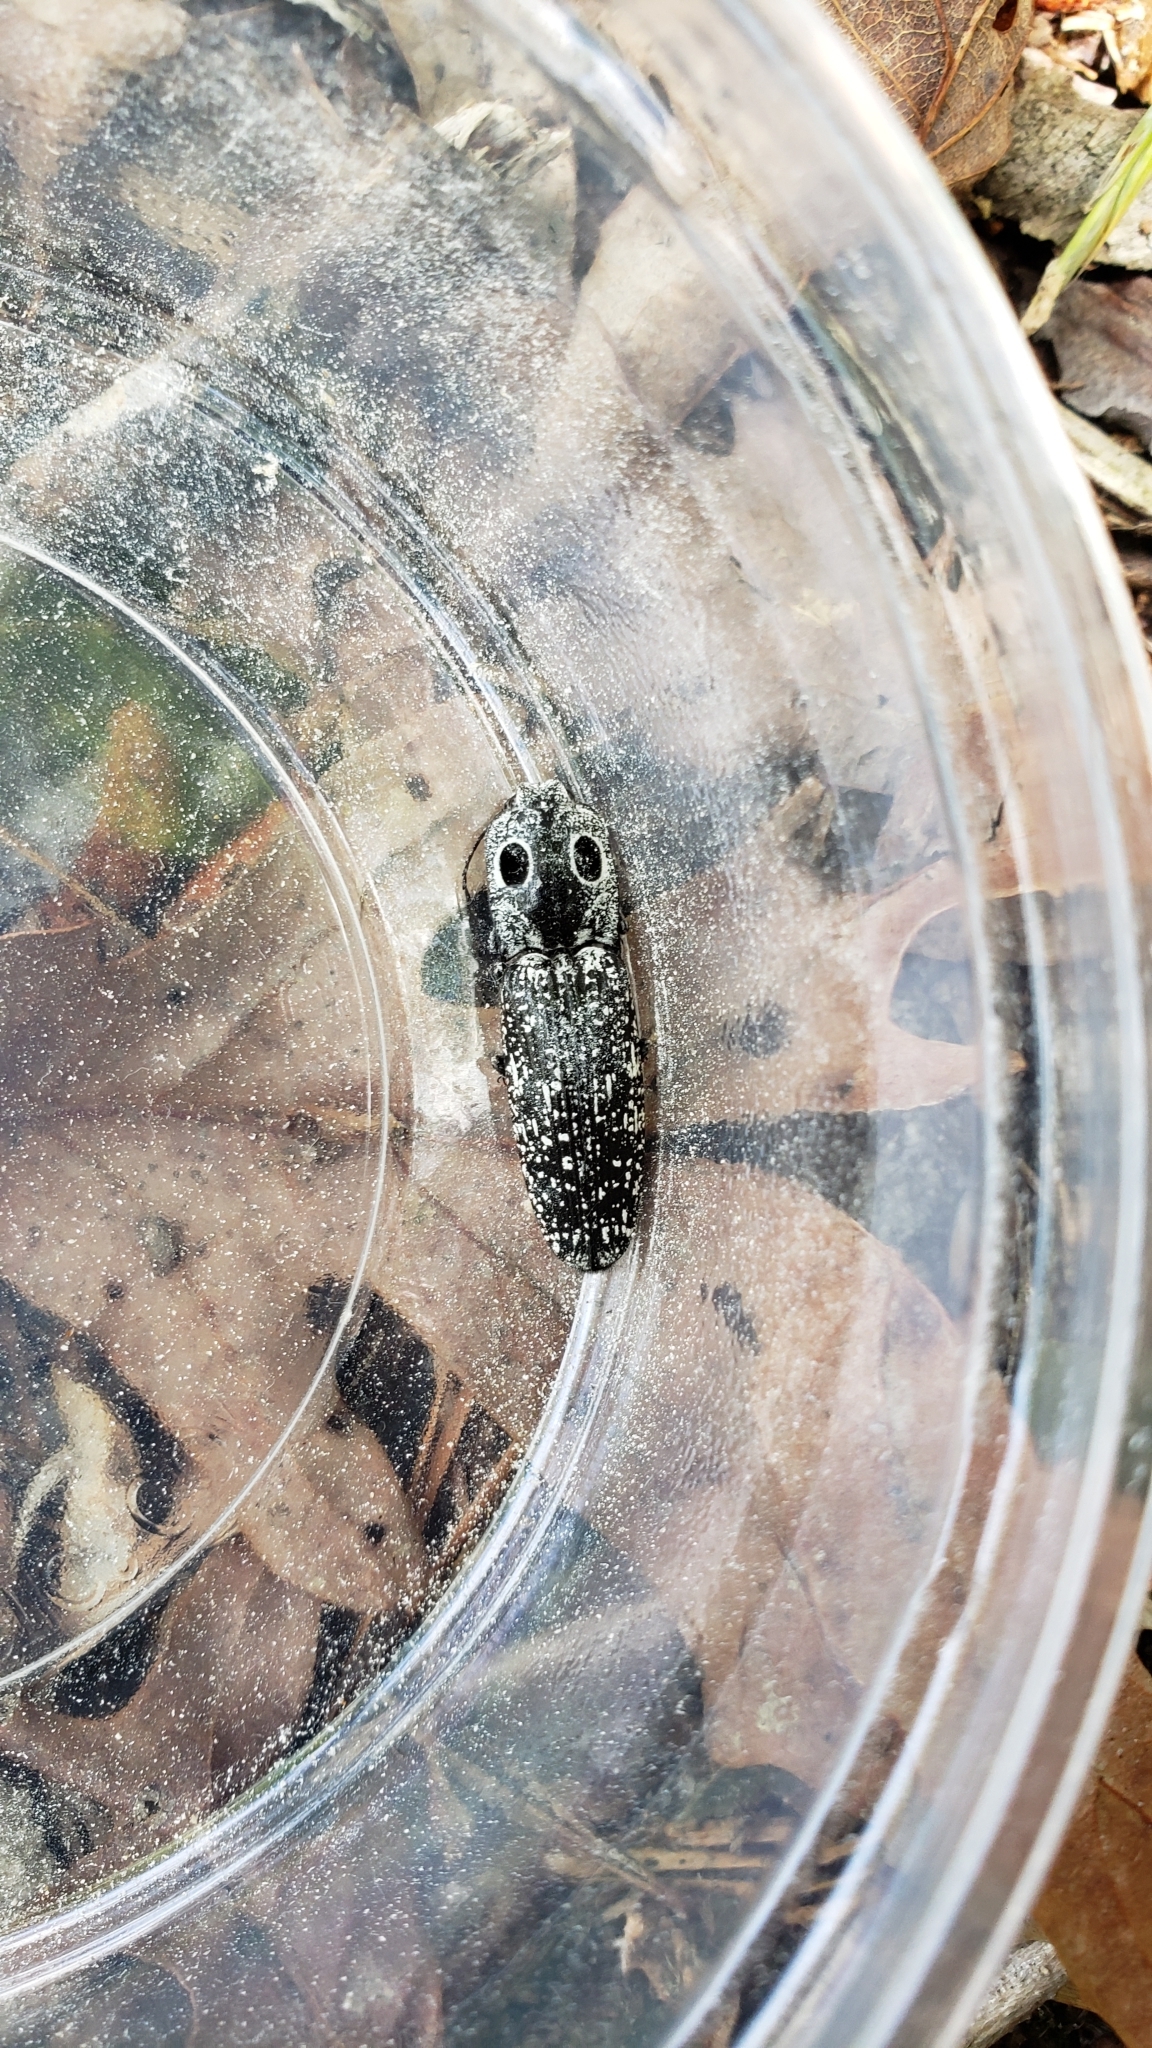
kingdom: Animalia
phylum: Arthropoda
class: Insecta
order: Coleoptera
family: Elateridae
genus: Alaus
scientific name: Alaus oculatus
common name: Eastern eyed click beetle
